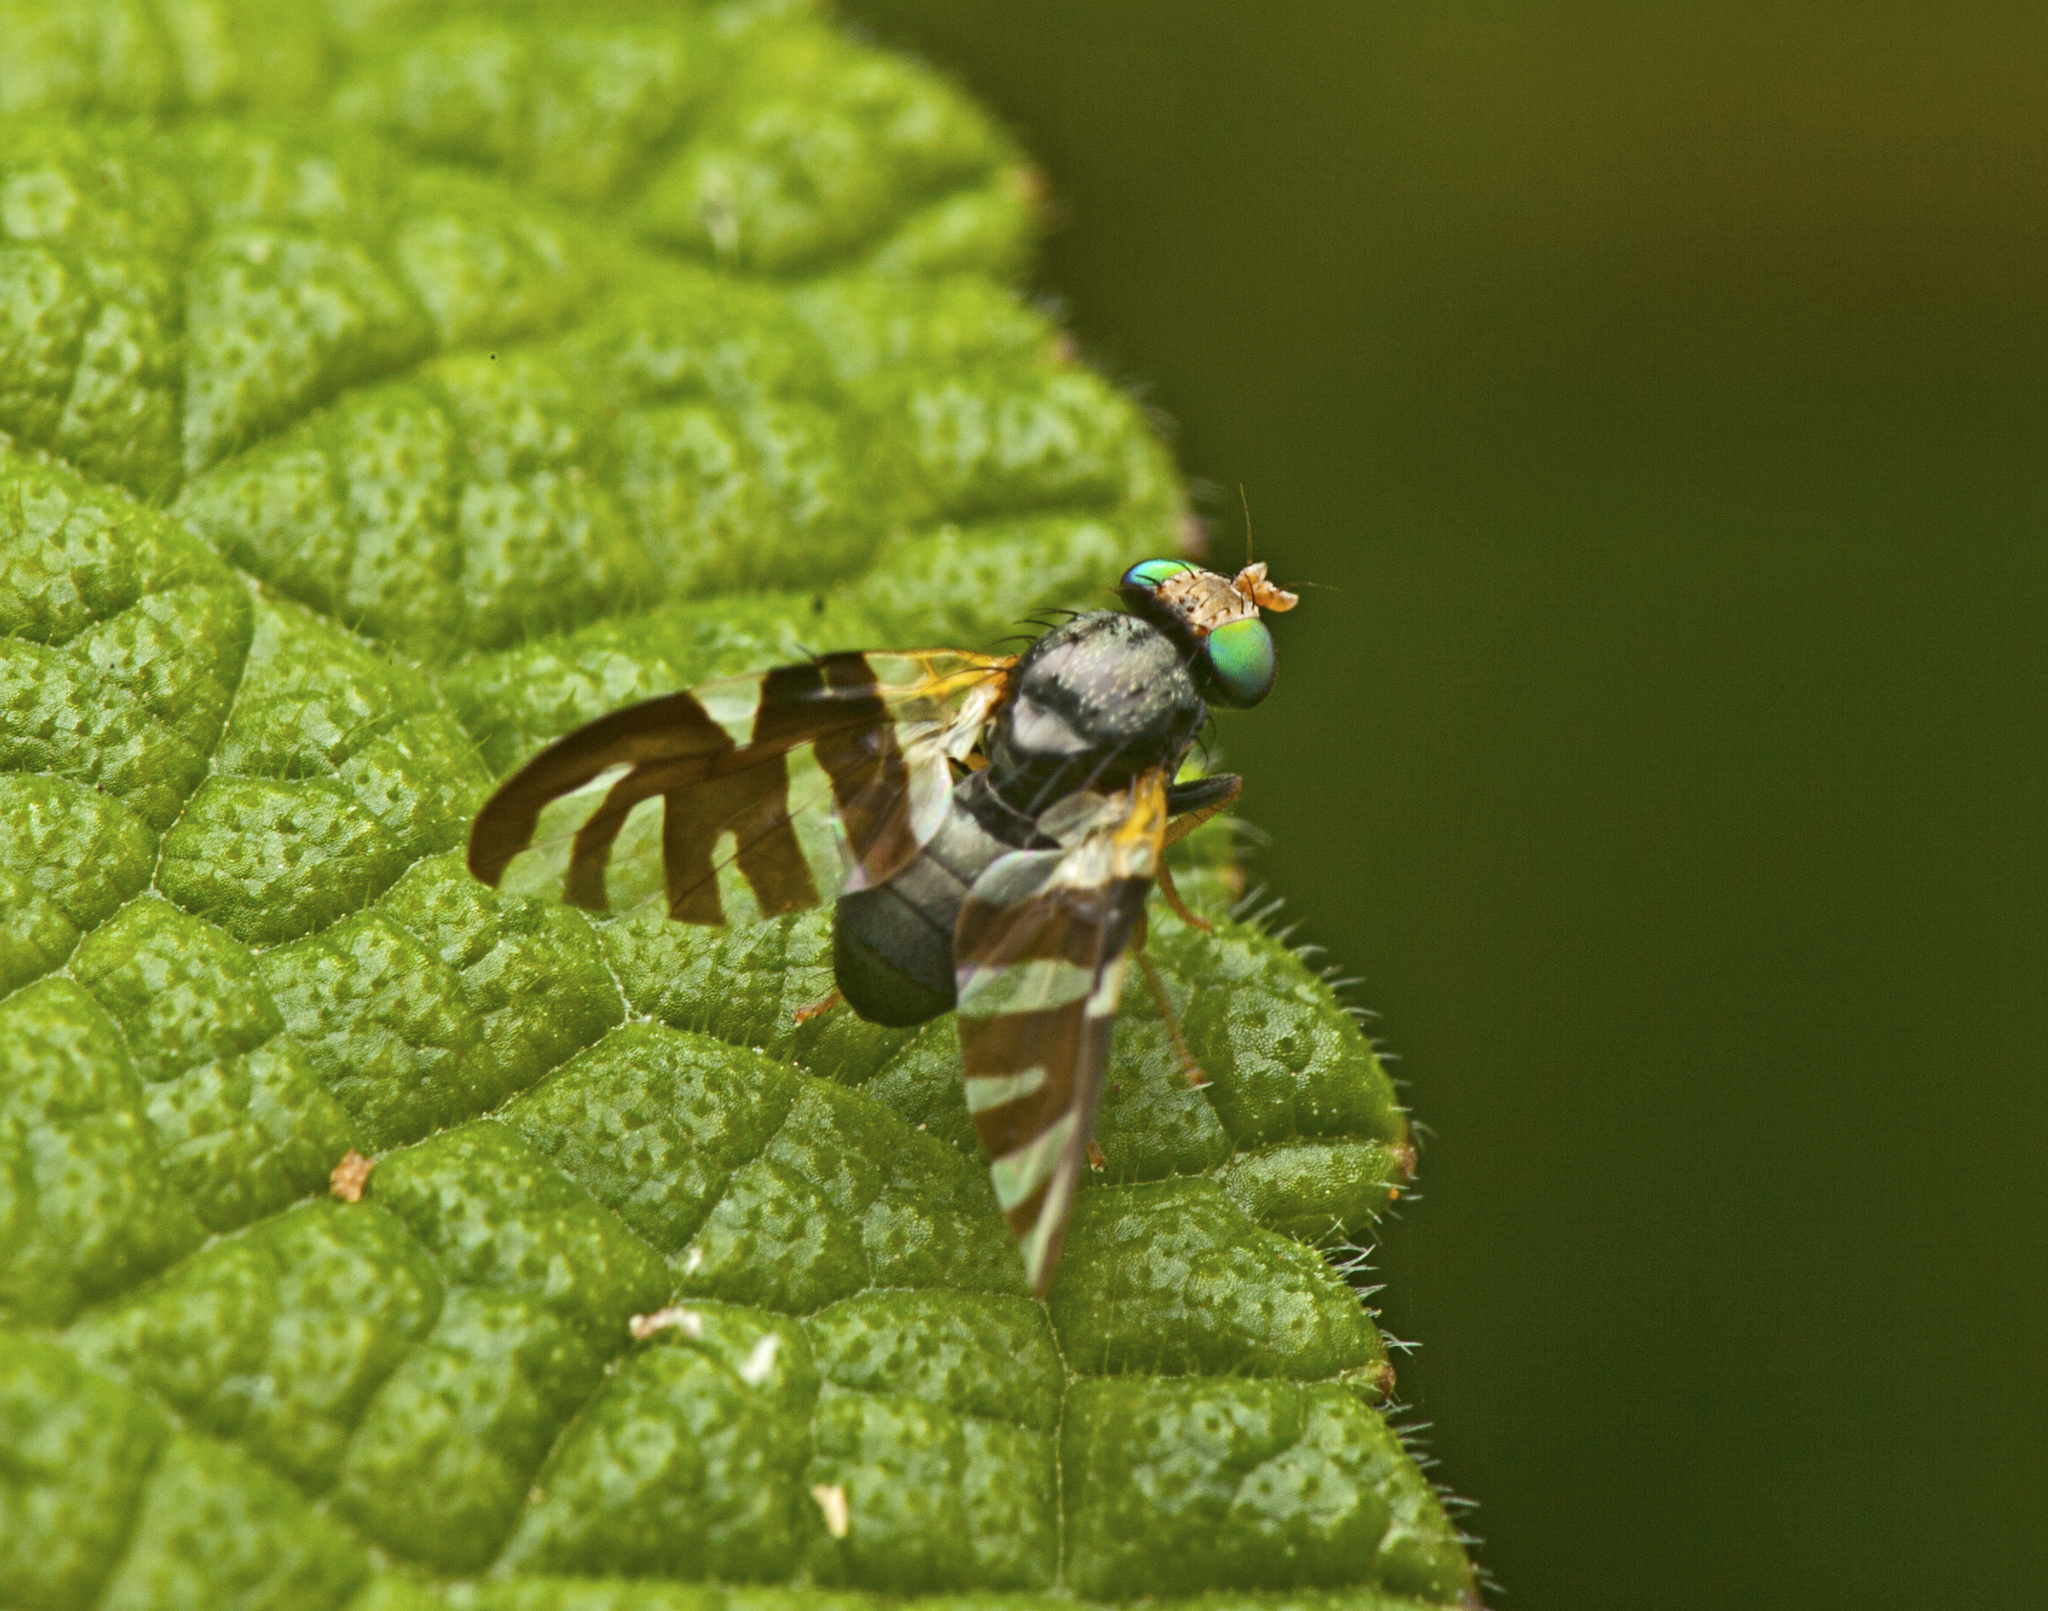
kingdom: Animalia
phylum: Arthropoda
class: Insecta
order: Diptera
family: Tephritidae
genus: Sphaeniscus
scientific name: Sphaeniscus atilius
